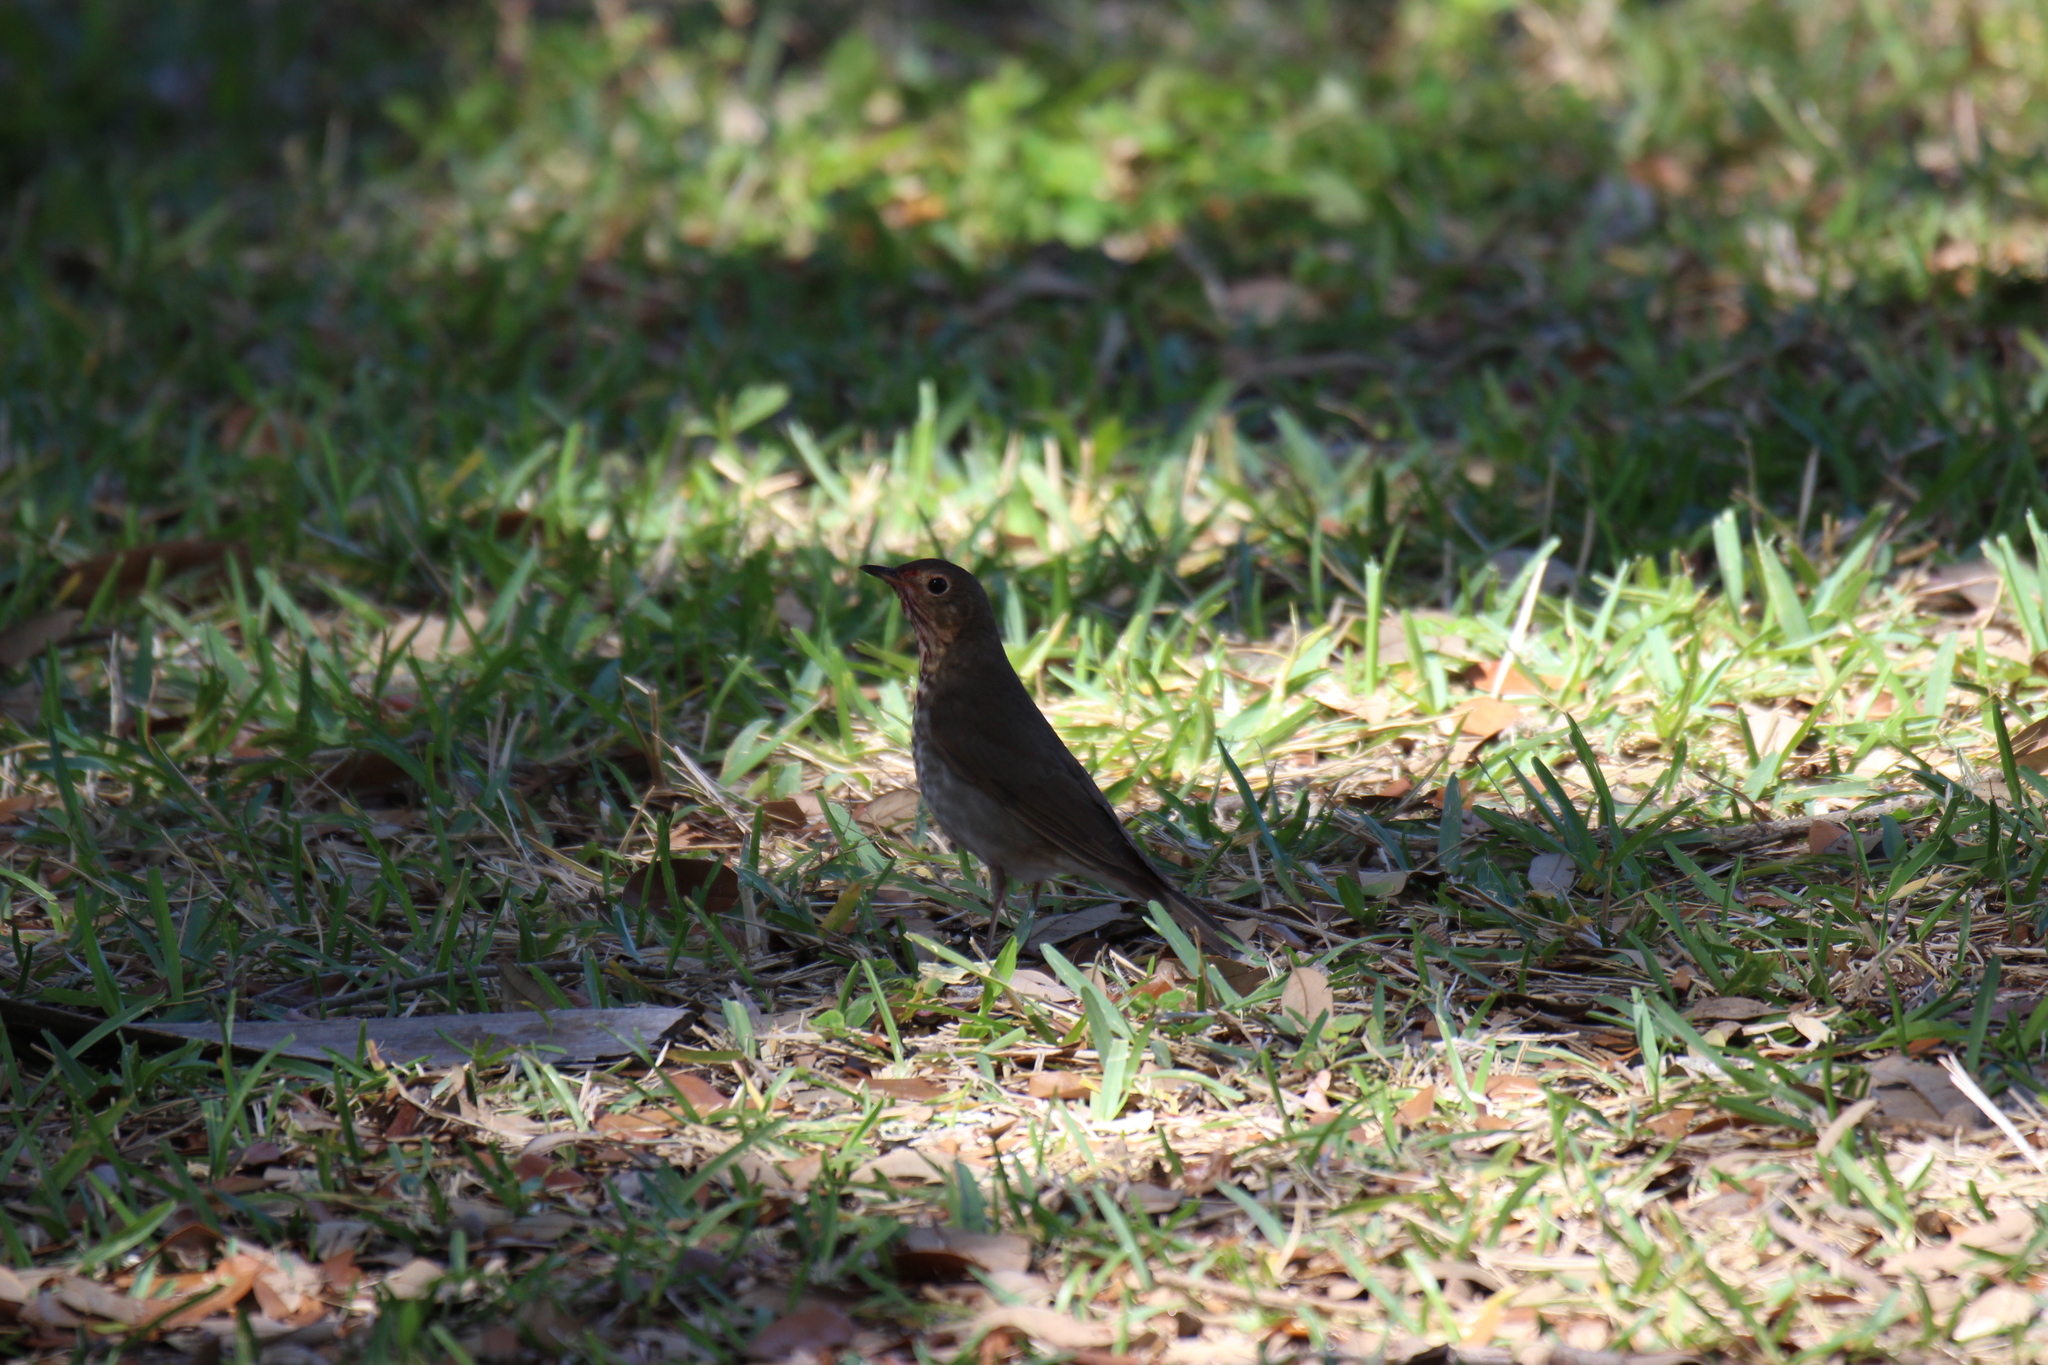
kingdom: Animalia
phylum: Chordata
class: Aves
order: Passeriformes
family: Turdidae
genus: Catharus
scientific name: Catharus ustulatus
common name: Swainson's thrush
